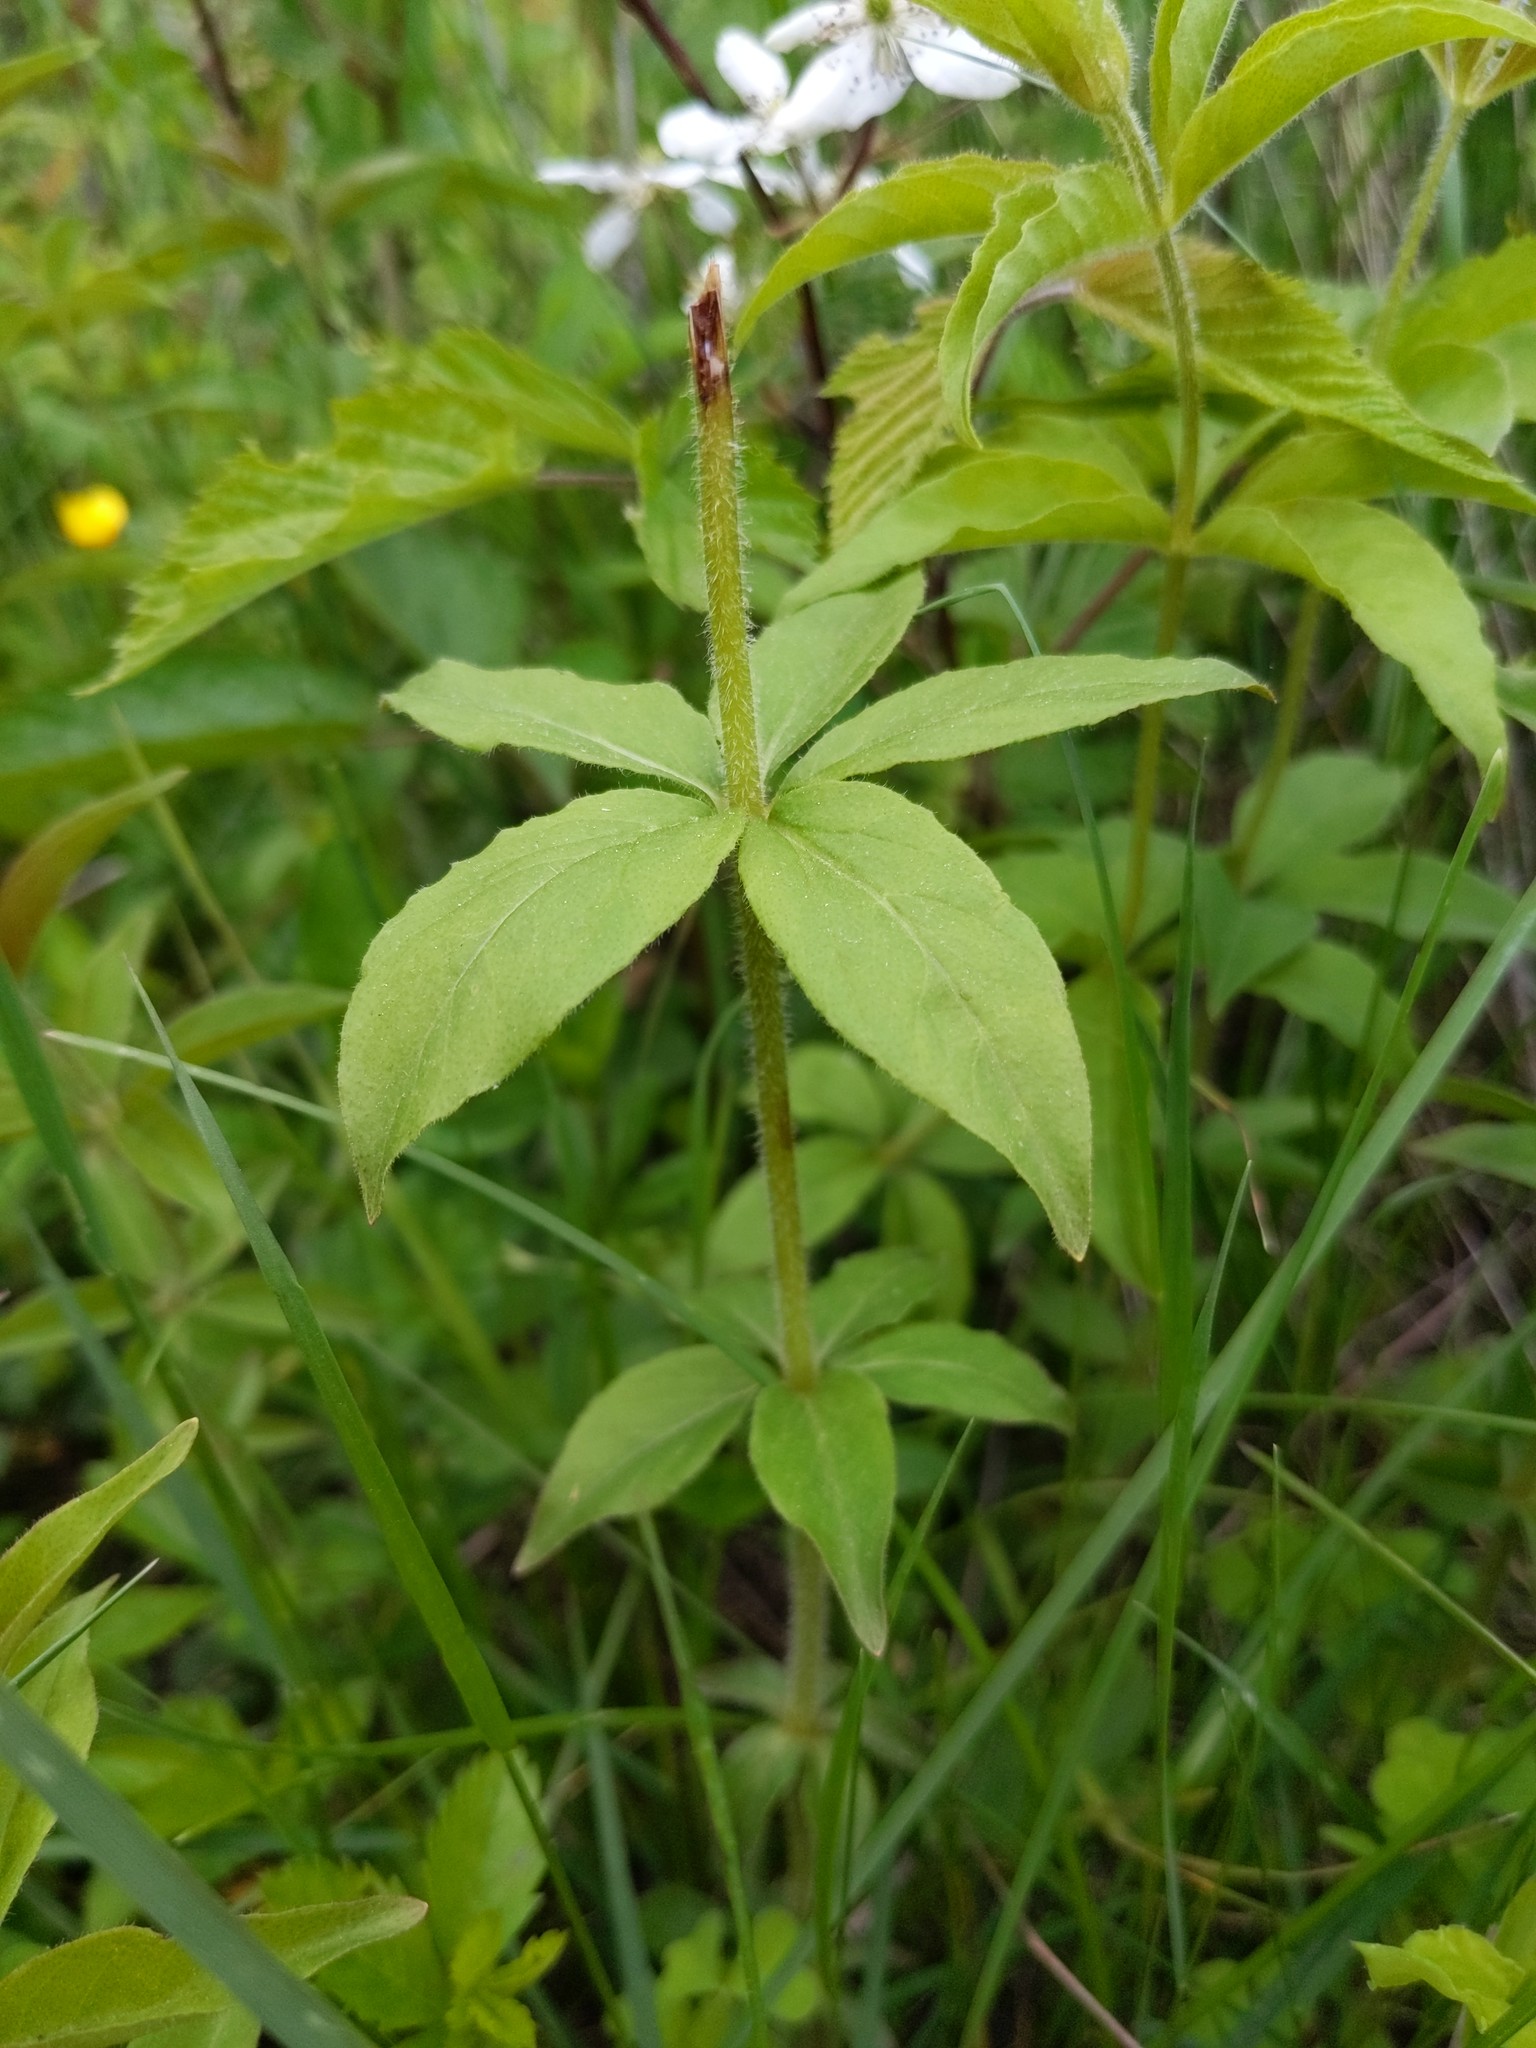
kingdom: Plantae
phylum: Tracheophyta
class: Magnoliopsida
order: Ericales
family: Primulaceae
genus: Lysimachia
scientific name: Lysimachia quadrifolia
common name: Whorled loosestrife
